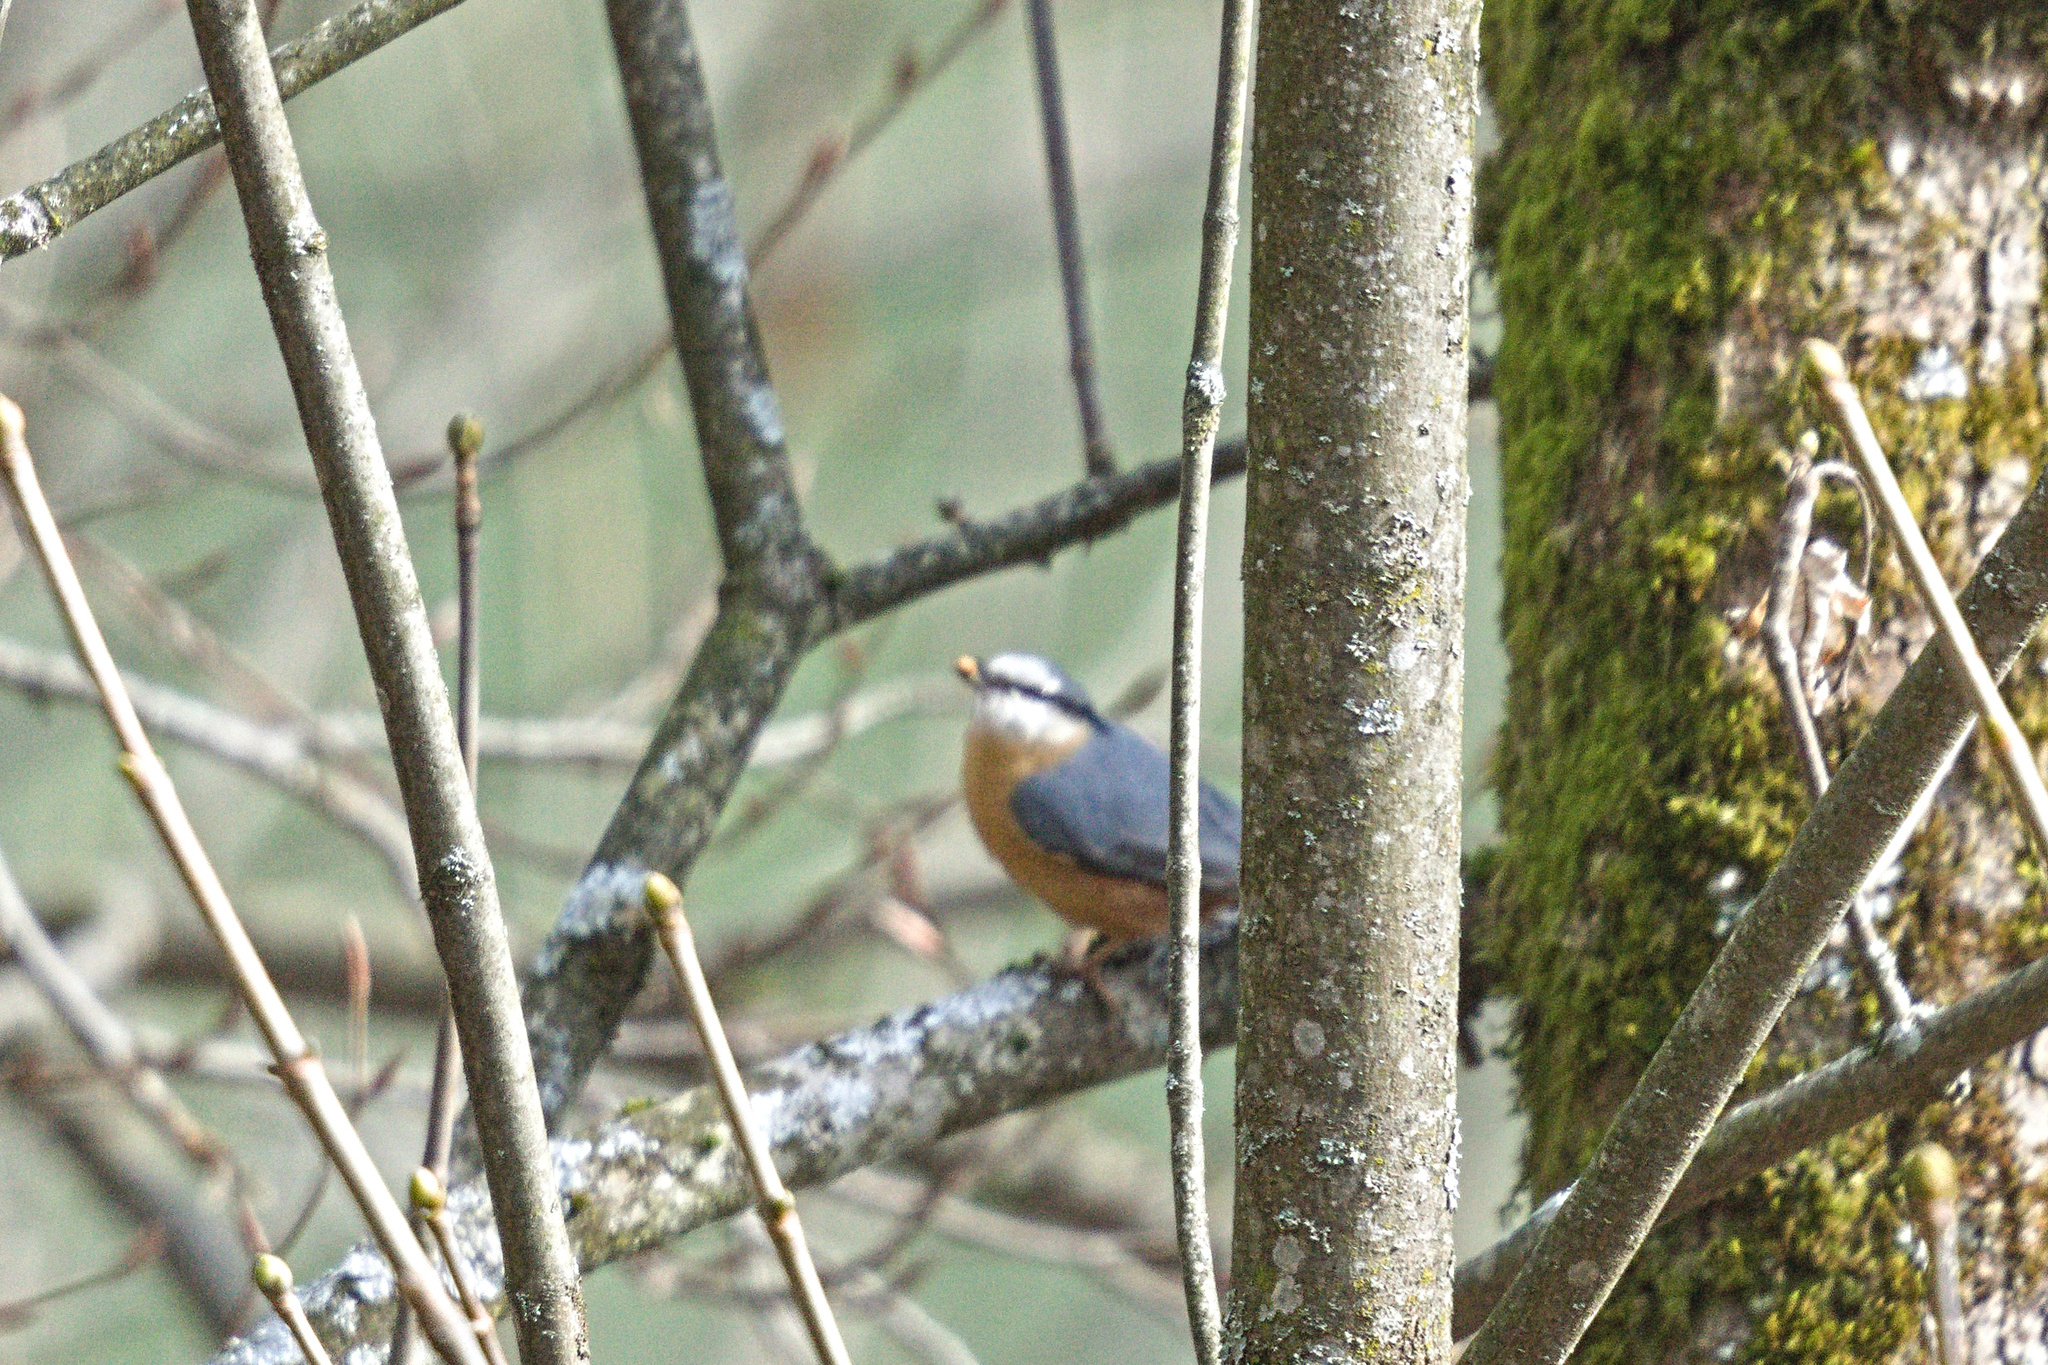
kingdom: Animalia
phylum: Chordata
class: Aves
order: Passeriformes
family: Sittidae
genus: Sitta
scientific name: Sitta europaea
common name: Eurasian nuthatch
